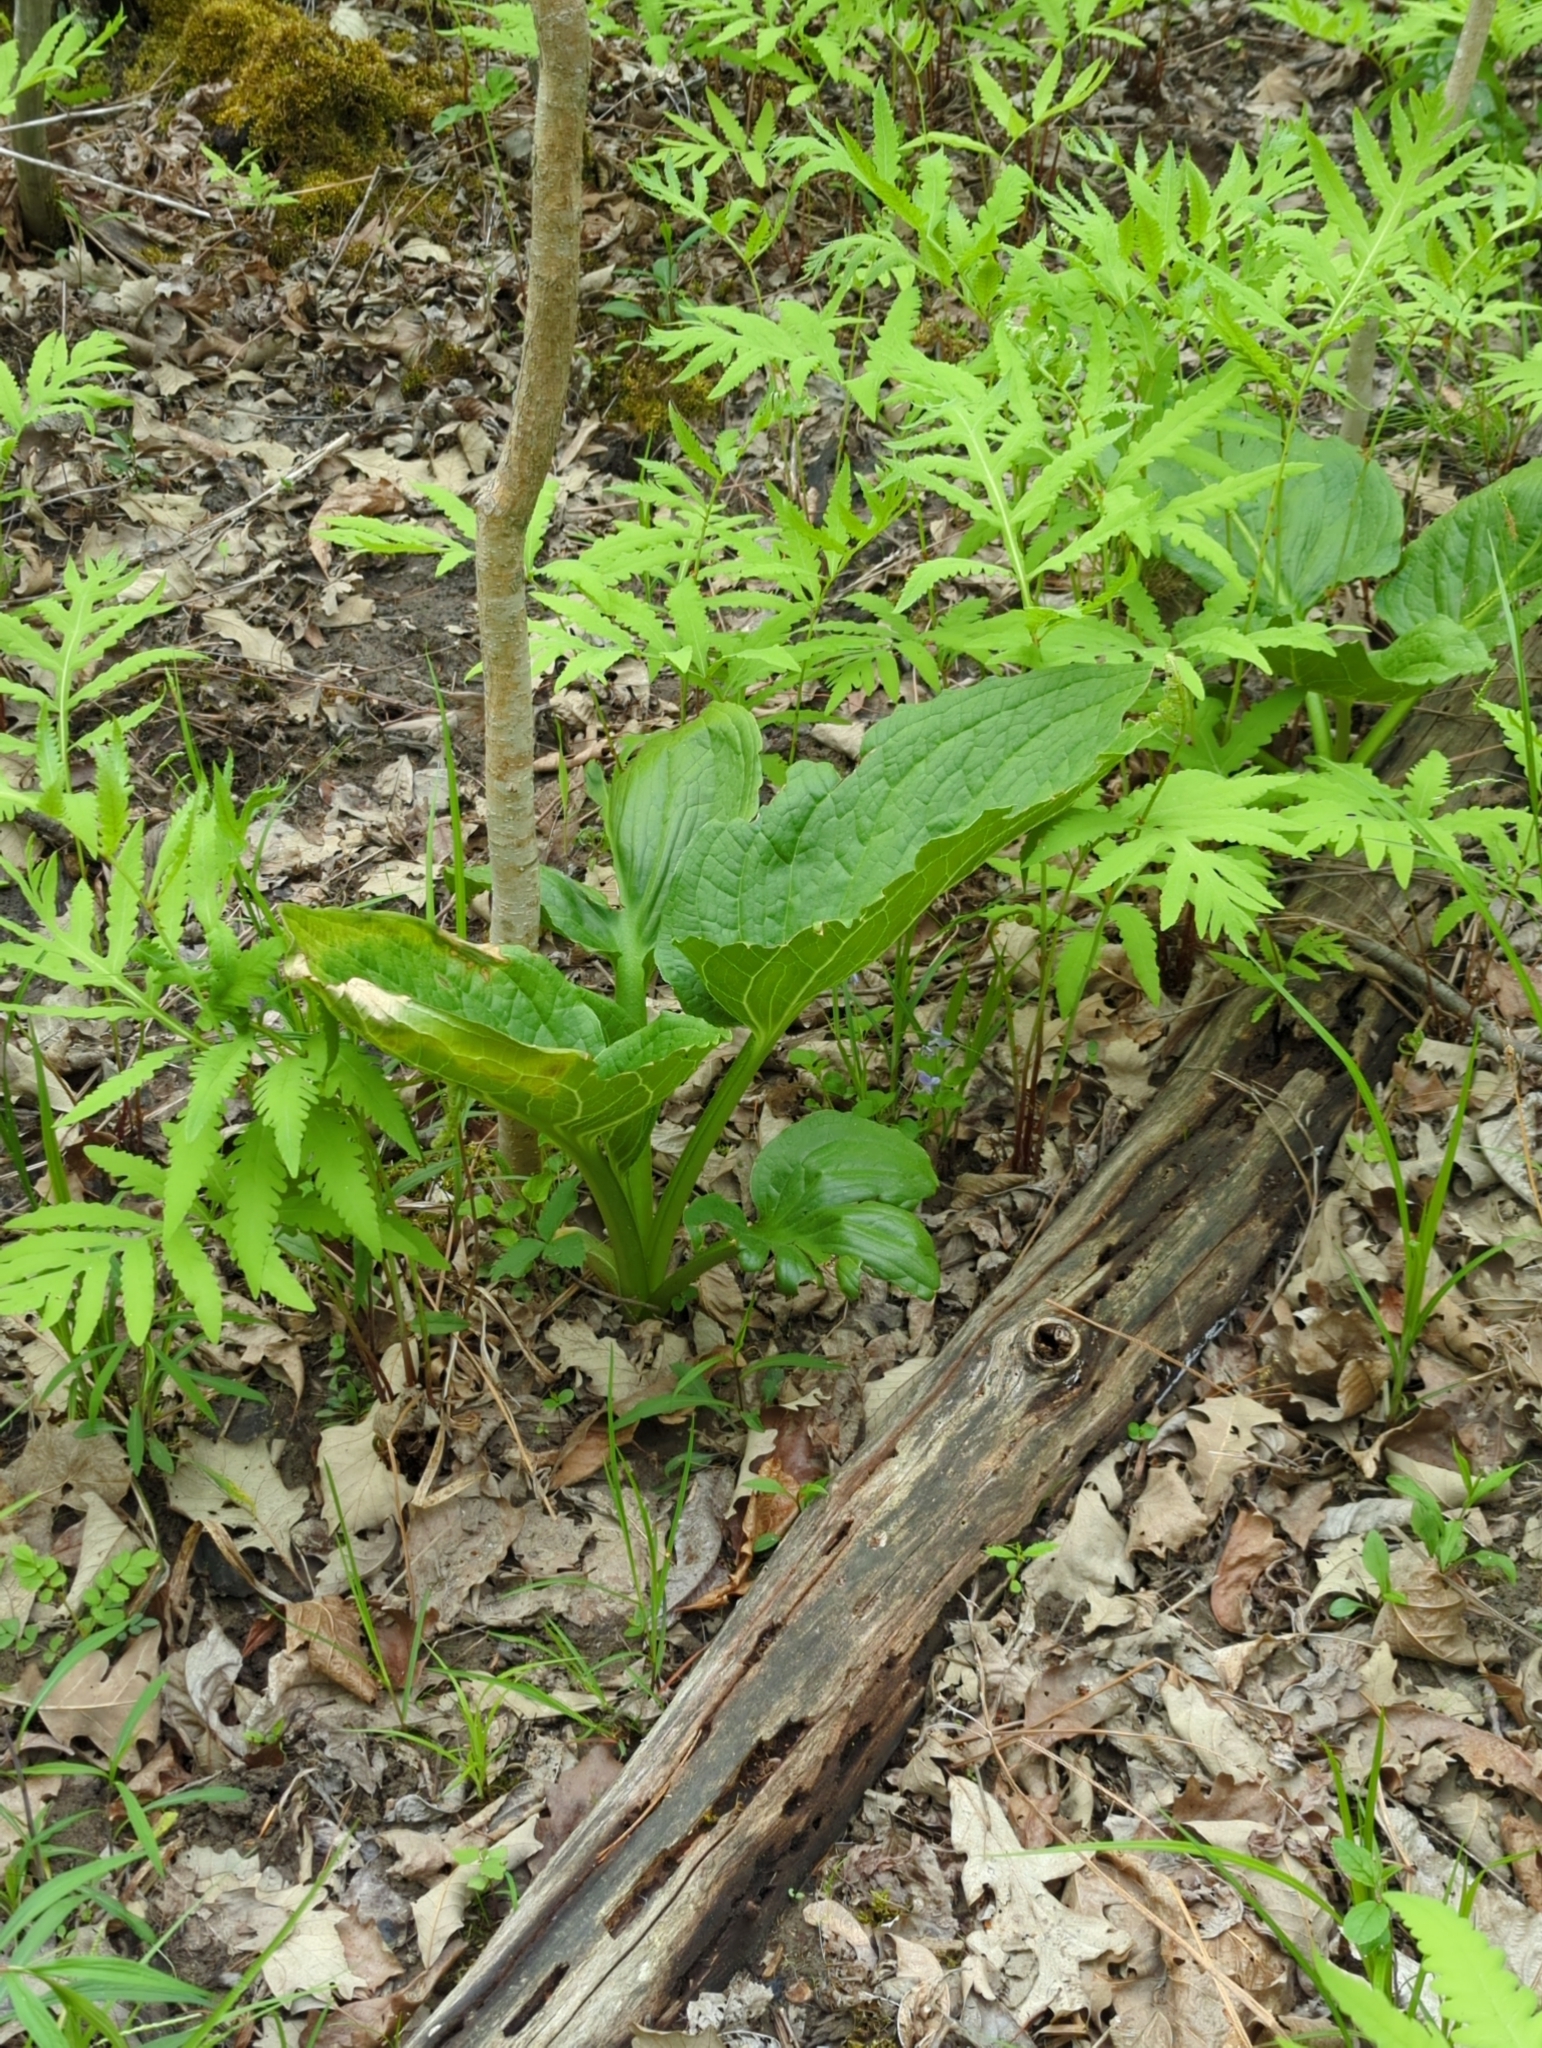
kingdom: Plantae
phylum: Tracheophyta
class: Liliopsida
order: Alismatales
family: Araceae
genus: Symplocarpus
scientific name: Symplocarpus foetidus
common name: Eastern skunk cabbage
